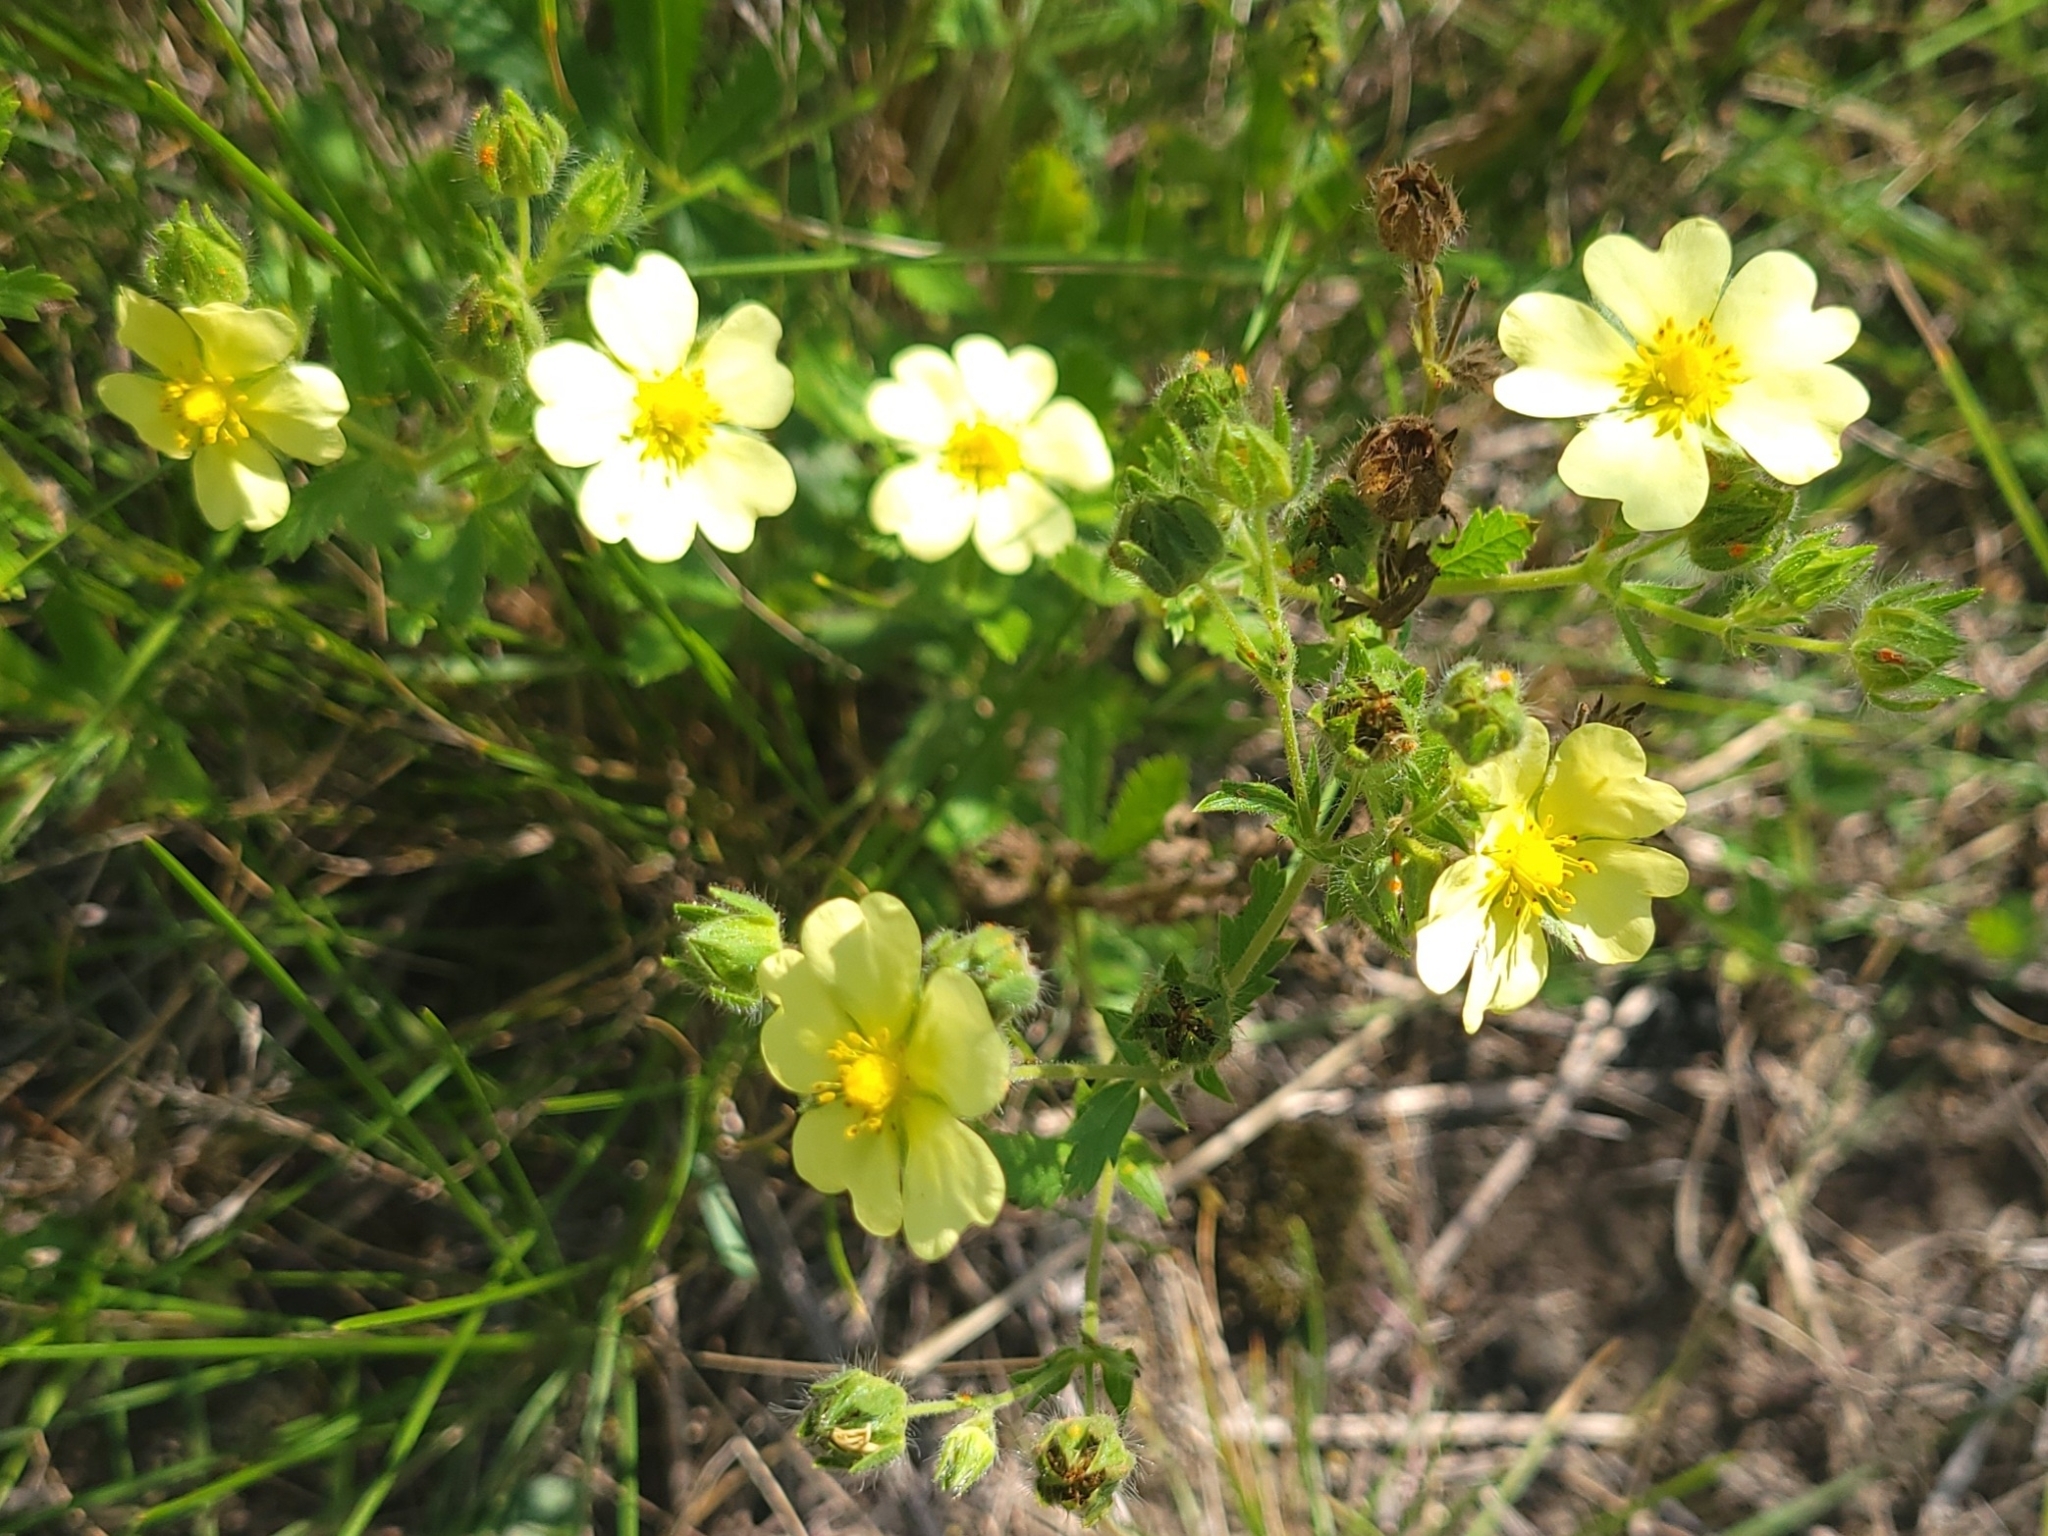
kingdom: Plantae
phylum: Tracheophyta
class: Magnoliopsida
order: Rosales
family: Rosaceae
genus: Potentilla
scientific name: Potentilla recta
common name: Sulphur cinquefoil
